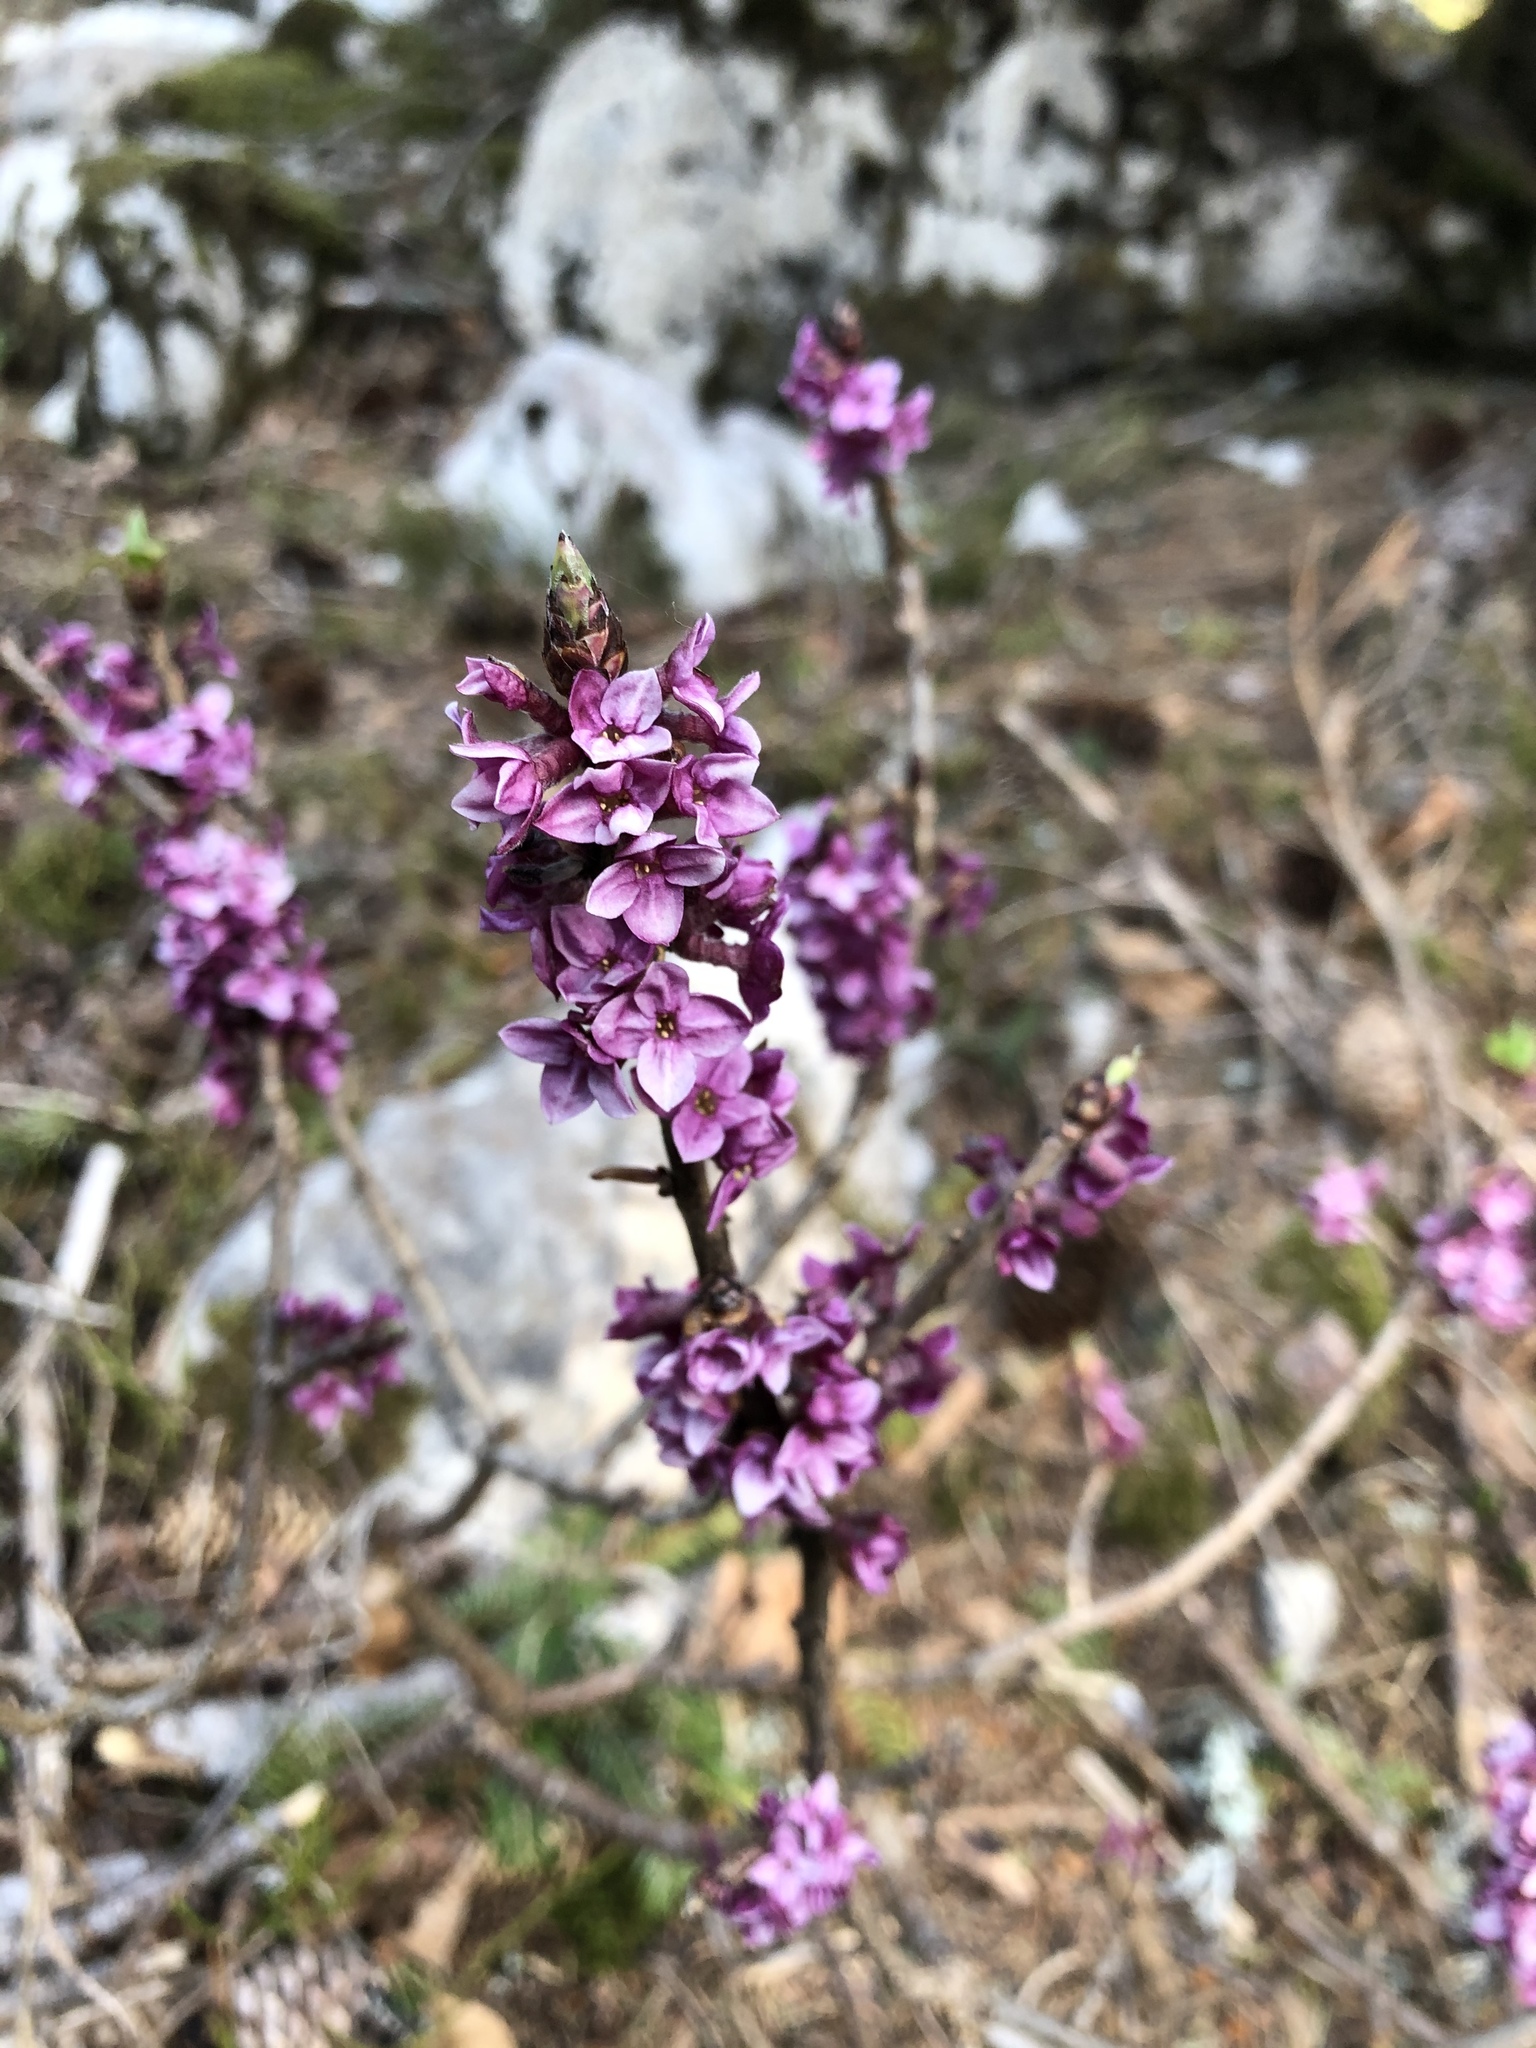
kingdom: Plantae
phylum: Tracheophyta
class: Magnoliopsida
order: Malvales
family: Thymelaeaceae
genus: Daphne
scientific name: Daphne mezereum
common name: Mezereon
